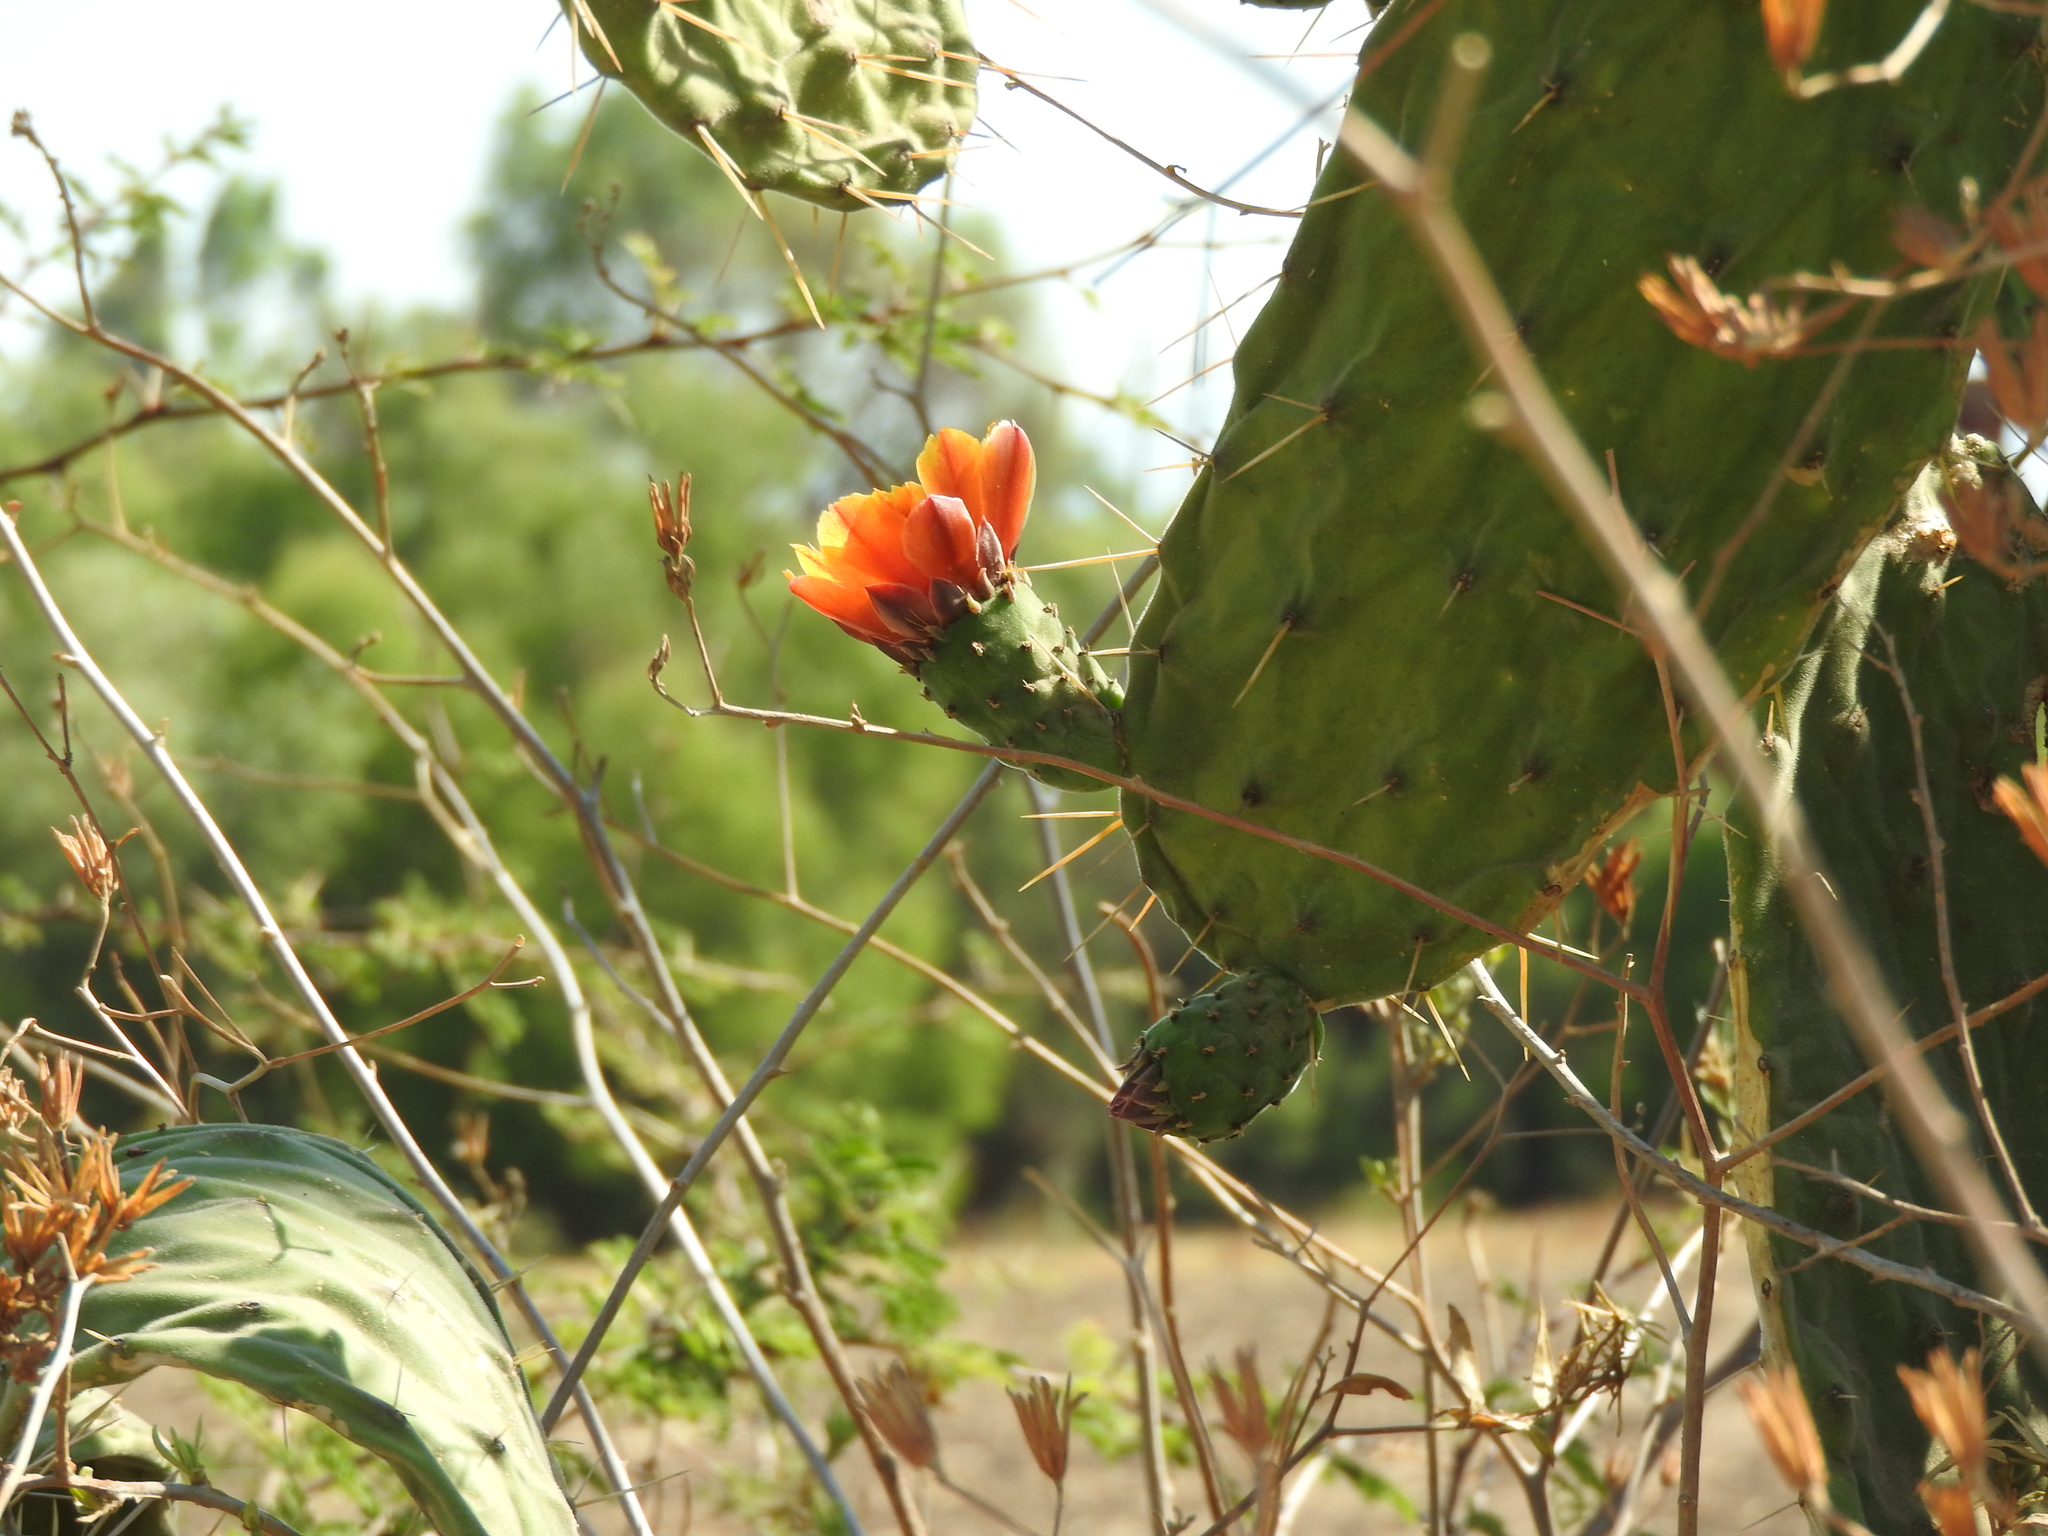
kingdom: Plantae
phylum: Tracheophyta
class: Magnoliopsida
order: Caryophyllales
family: Cactaceae
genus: Opuntia
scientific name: Opuntia jaliscana
